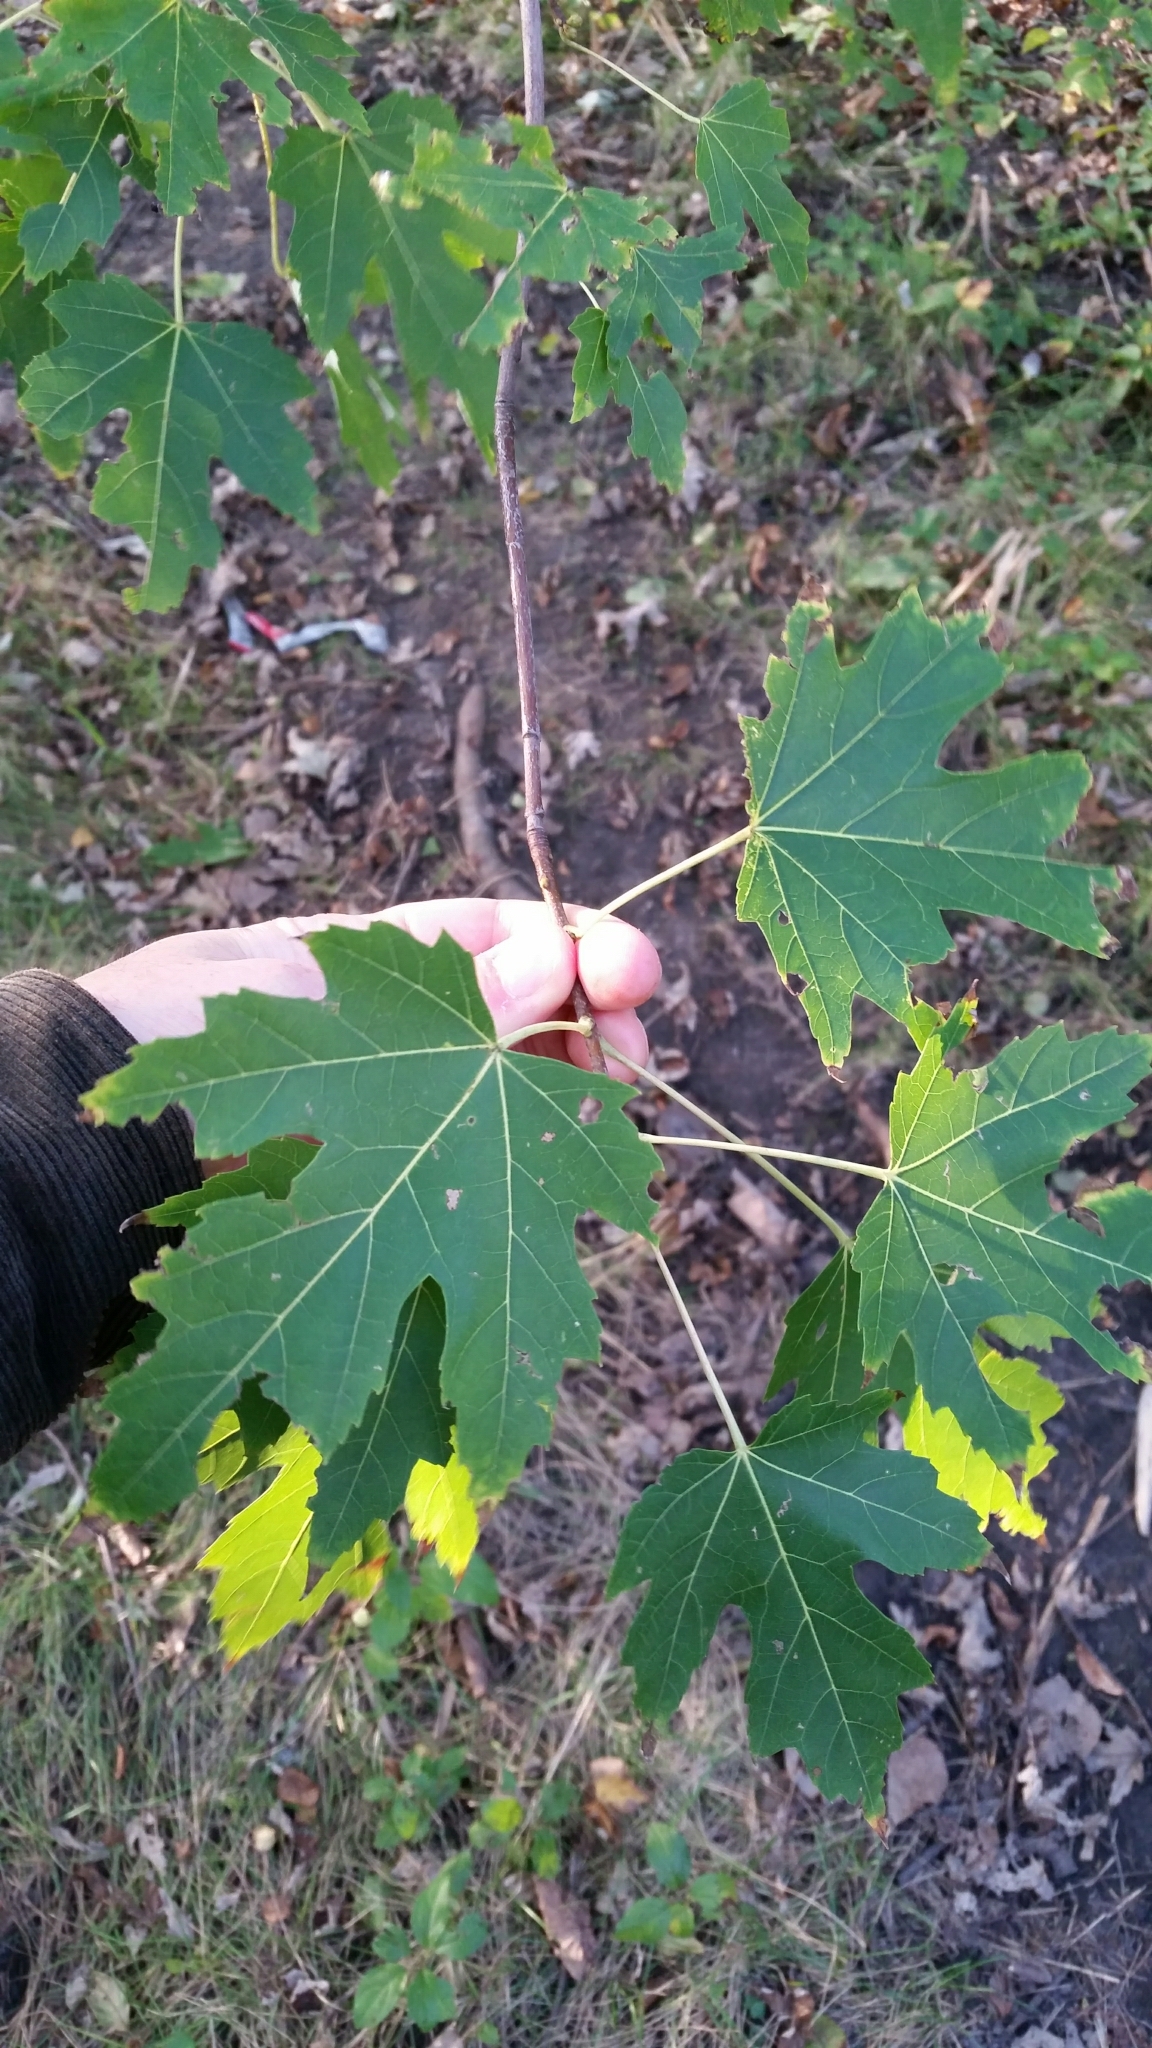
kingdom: Plantae
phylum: Tracheophyta
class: Magnoliopsida
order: Sapindales
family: Sapindaceae
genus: Acer
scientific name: Acer saccharinum
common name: Silver maple
